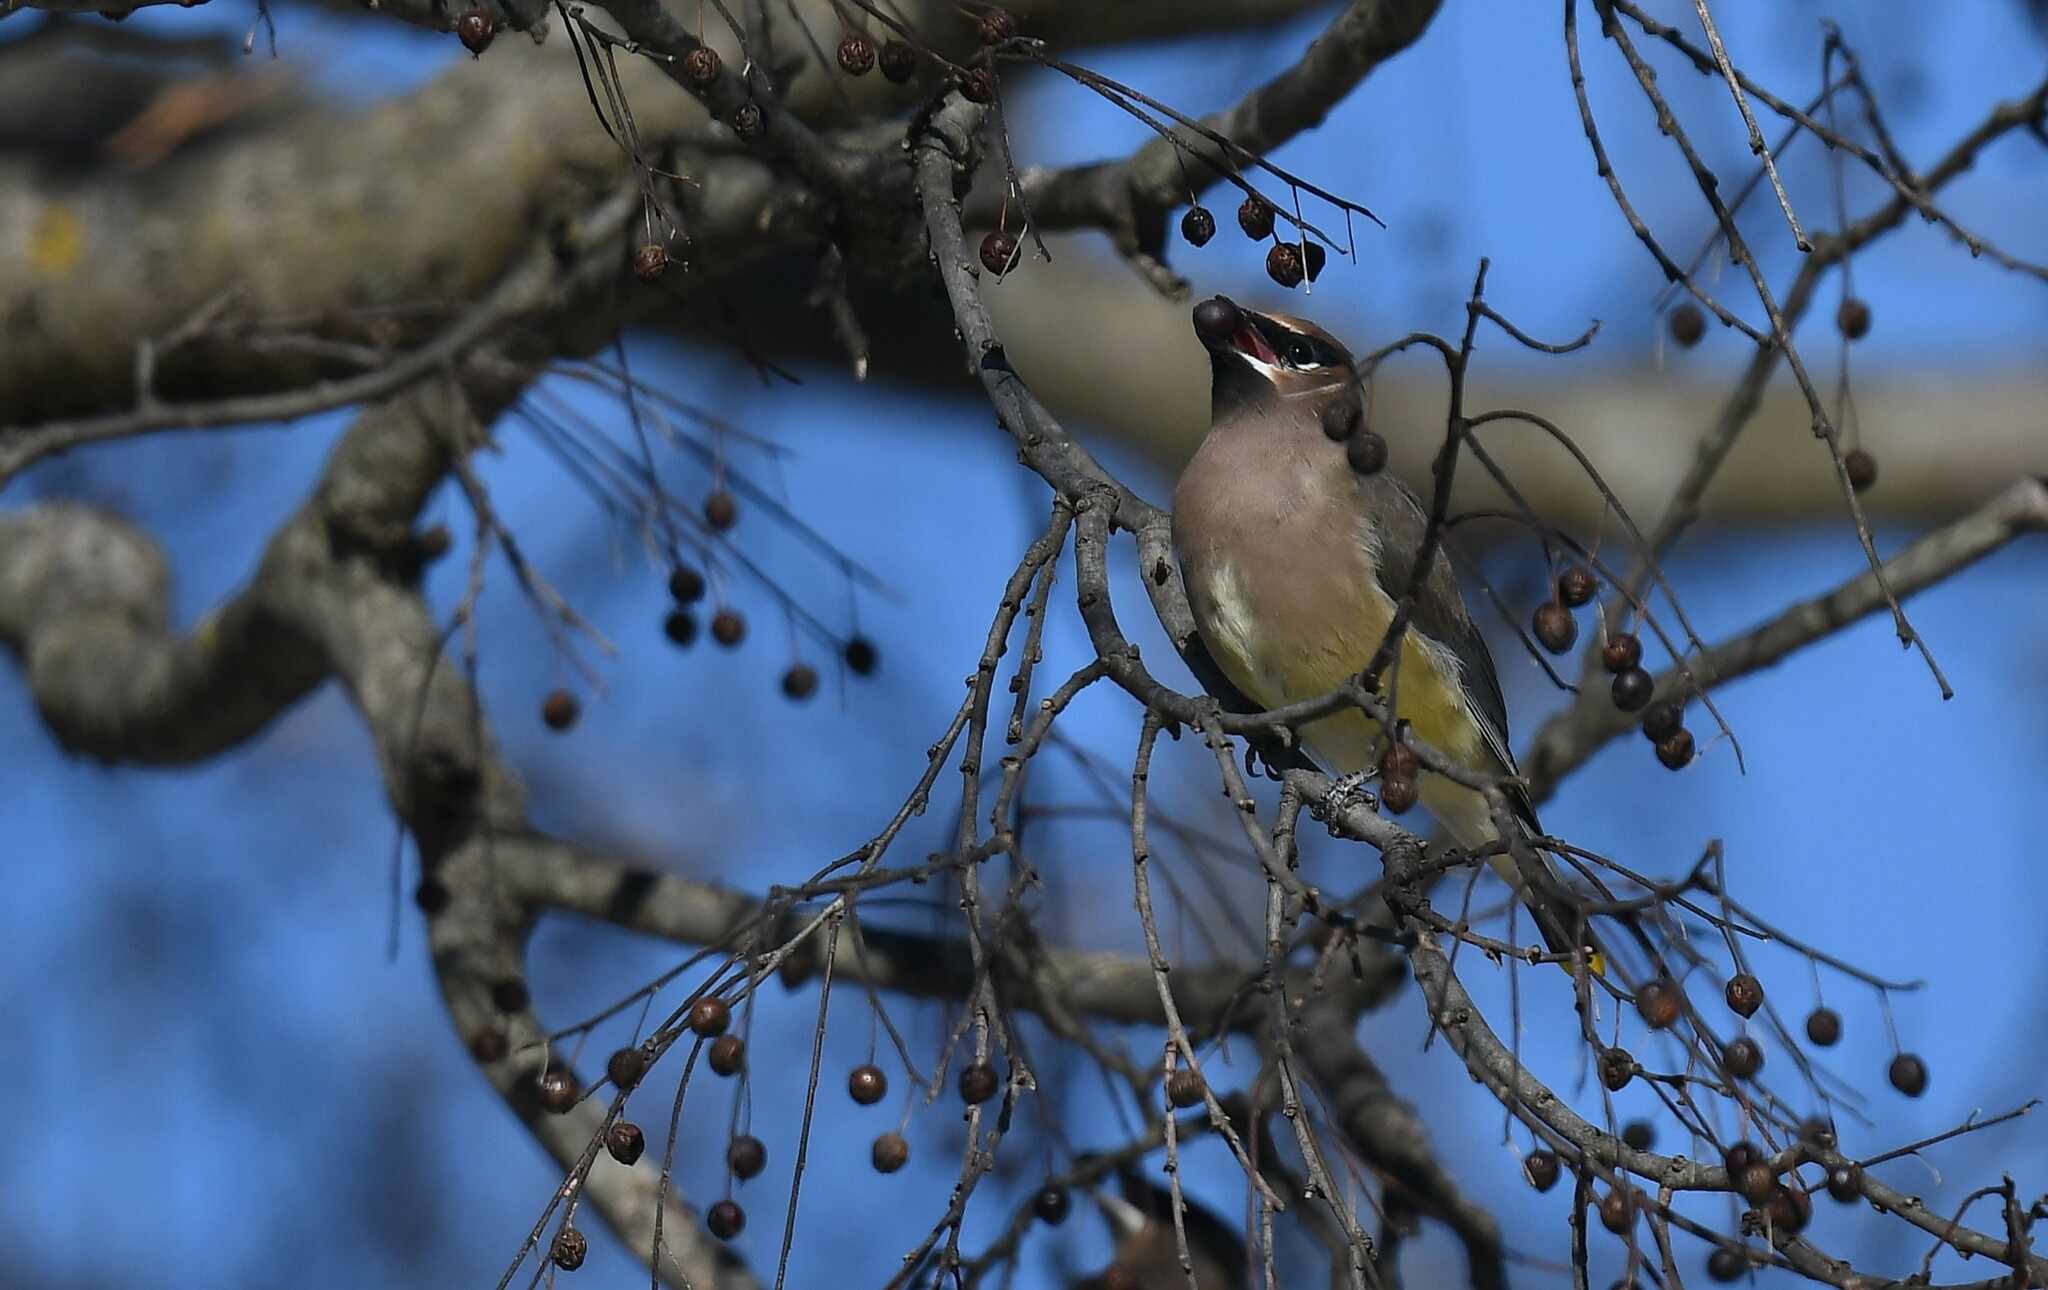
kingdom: Animalia
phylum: Chordata
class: Aves
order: Passeriformes
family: Bombycillidae
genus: Bombycilla
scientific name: Bombycilla cedrorum
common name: Cedar waxwing
